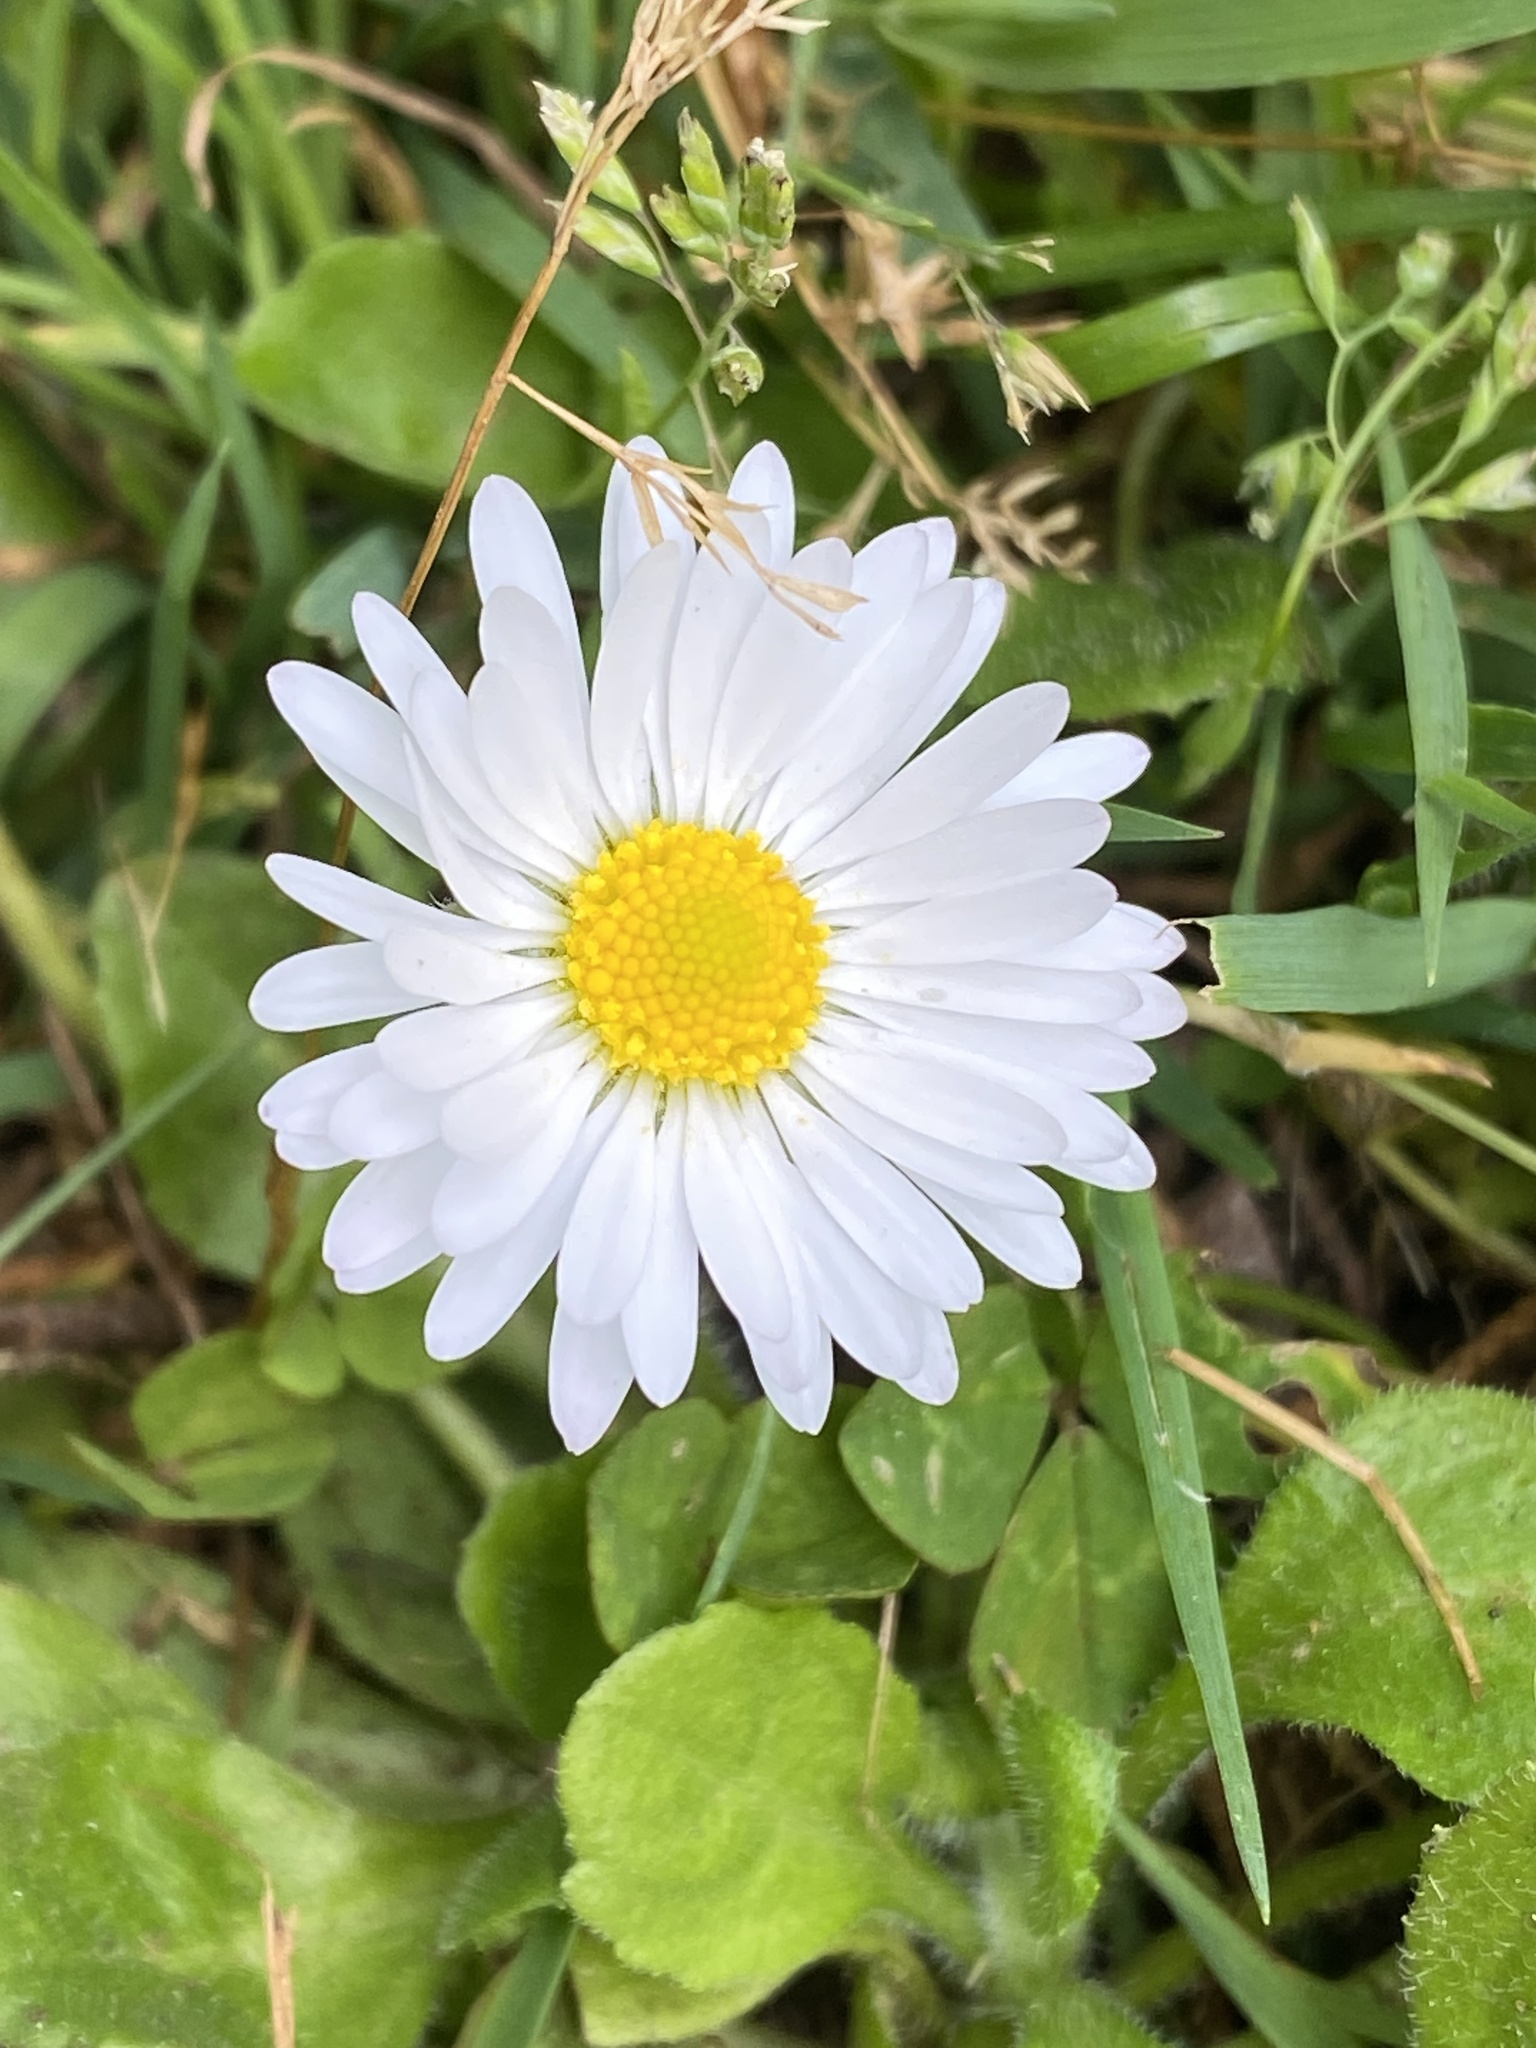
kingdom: Plantae
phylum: Tracheophyta
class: Magnoliopsida
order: Asterales
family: Asteraceae
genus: Bellis
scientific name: Bellis perennis
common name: Lawndaisy
